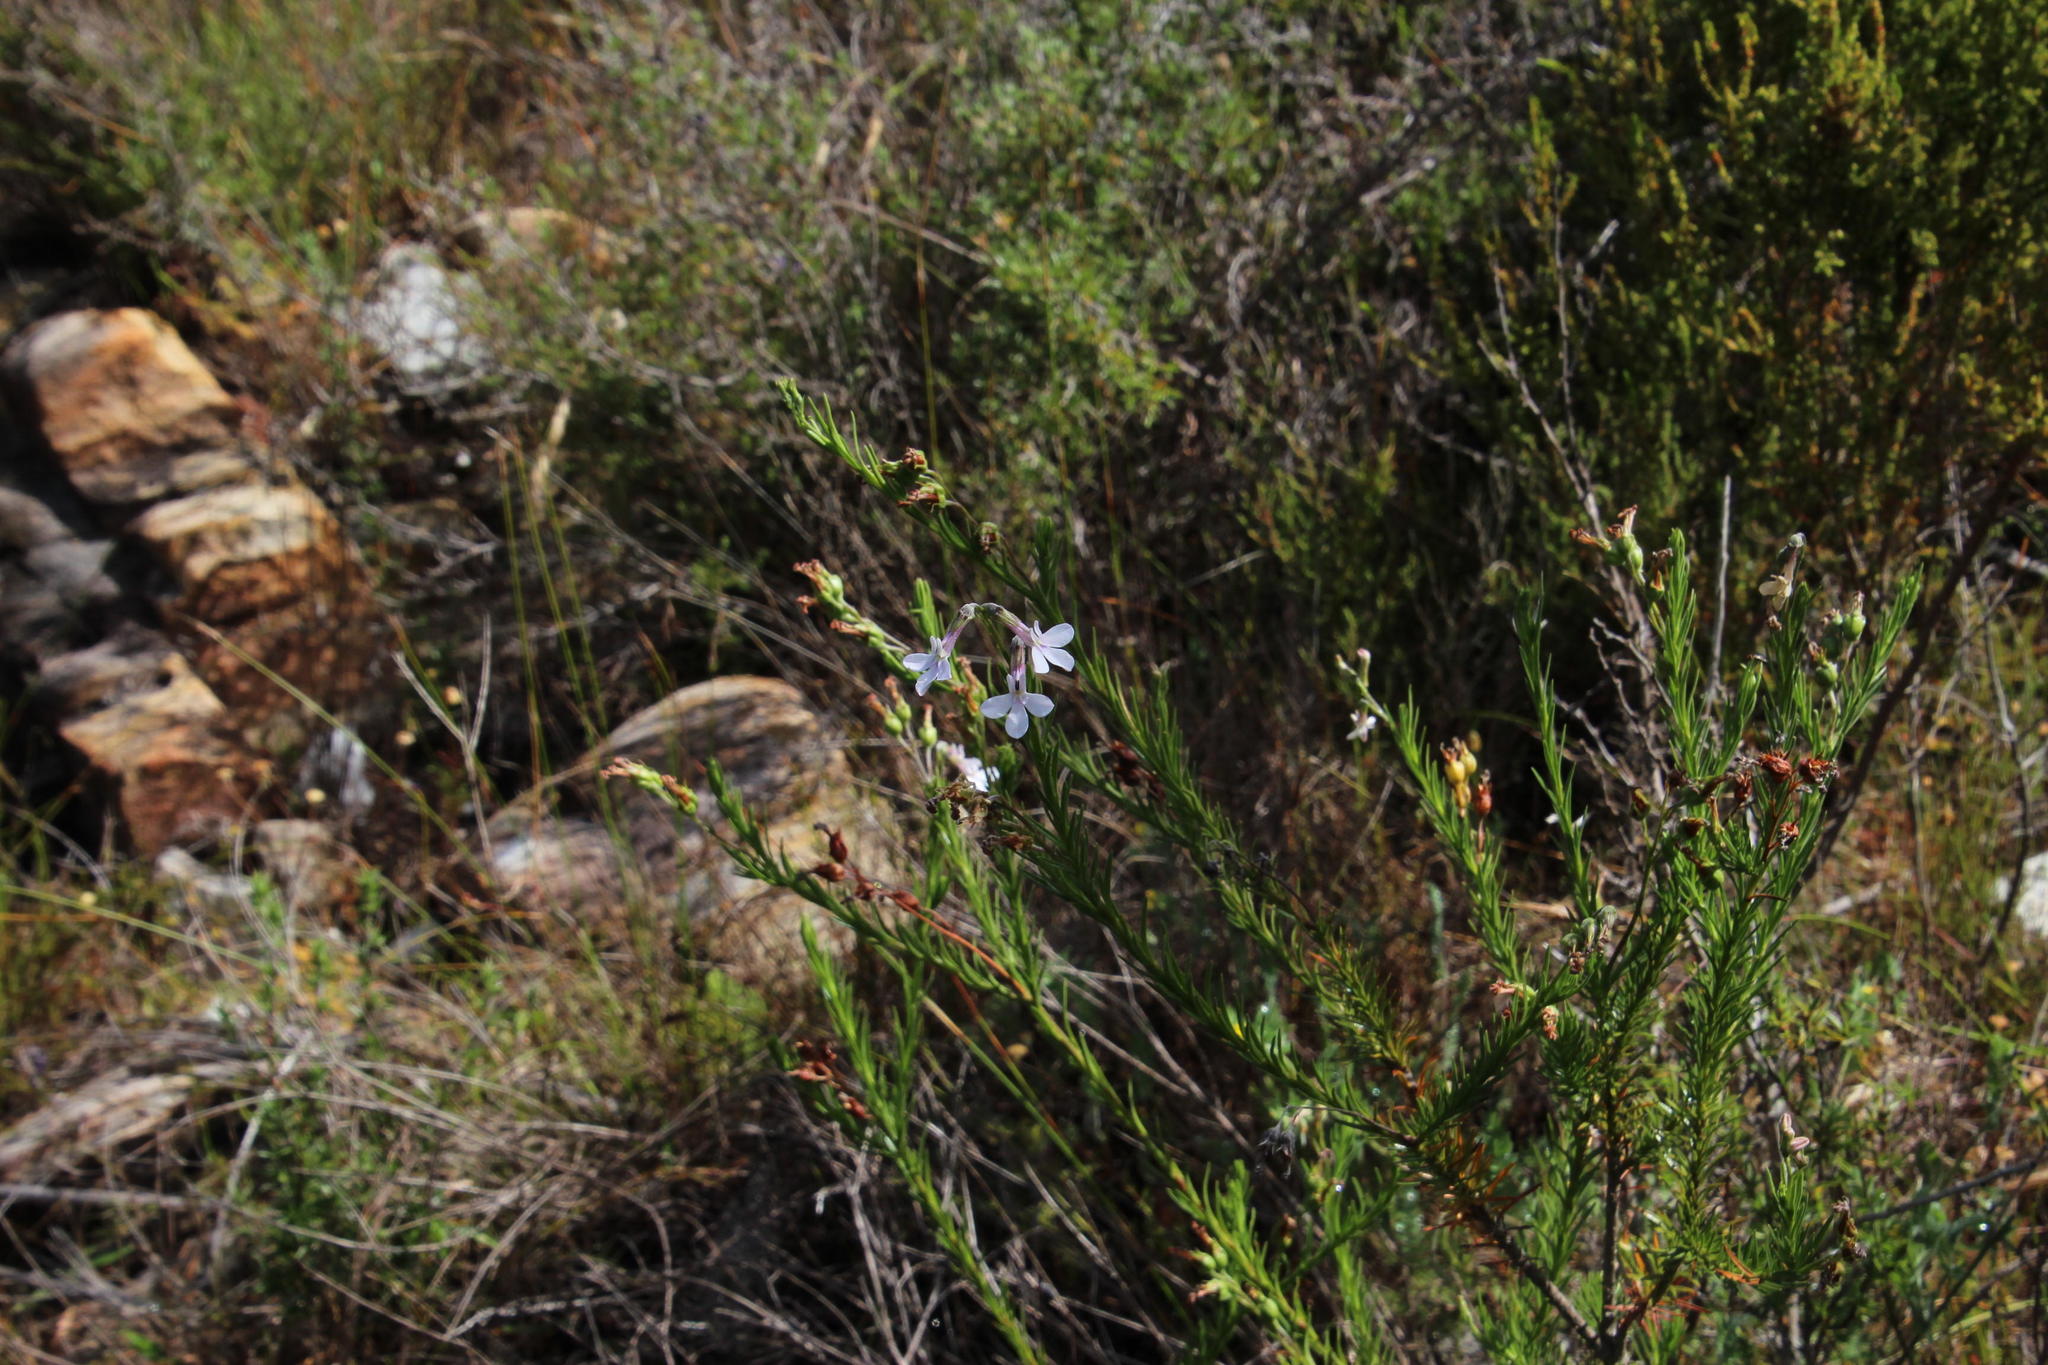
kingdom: Plantae
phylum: Tracheophyta
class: Magnoliopsida
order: Asterales
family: Campanulaceae
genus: Lobelia
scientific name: Lobelia pinifolia
